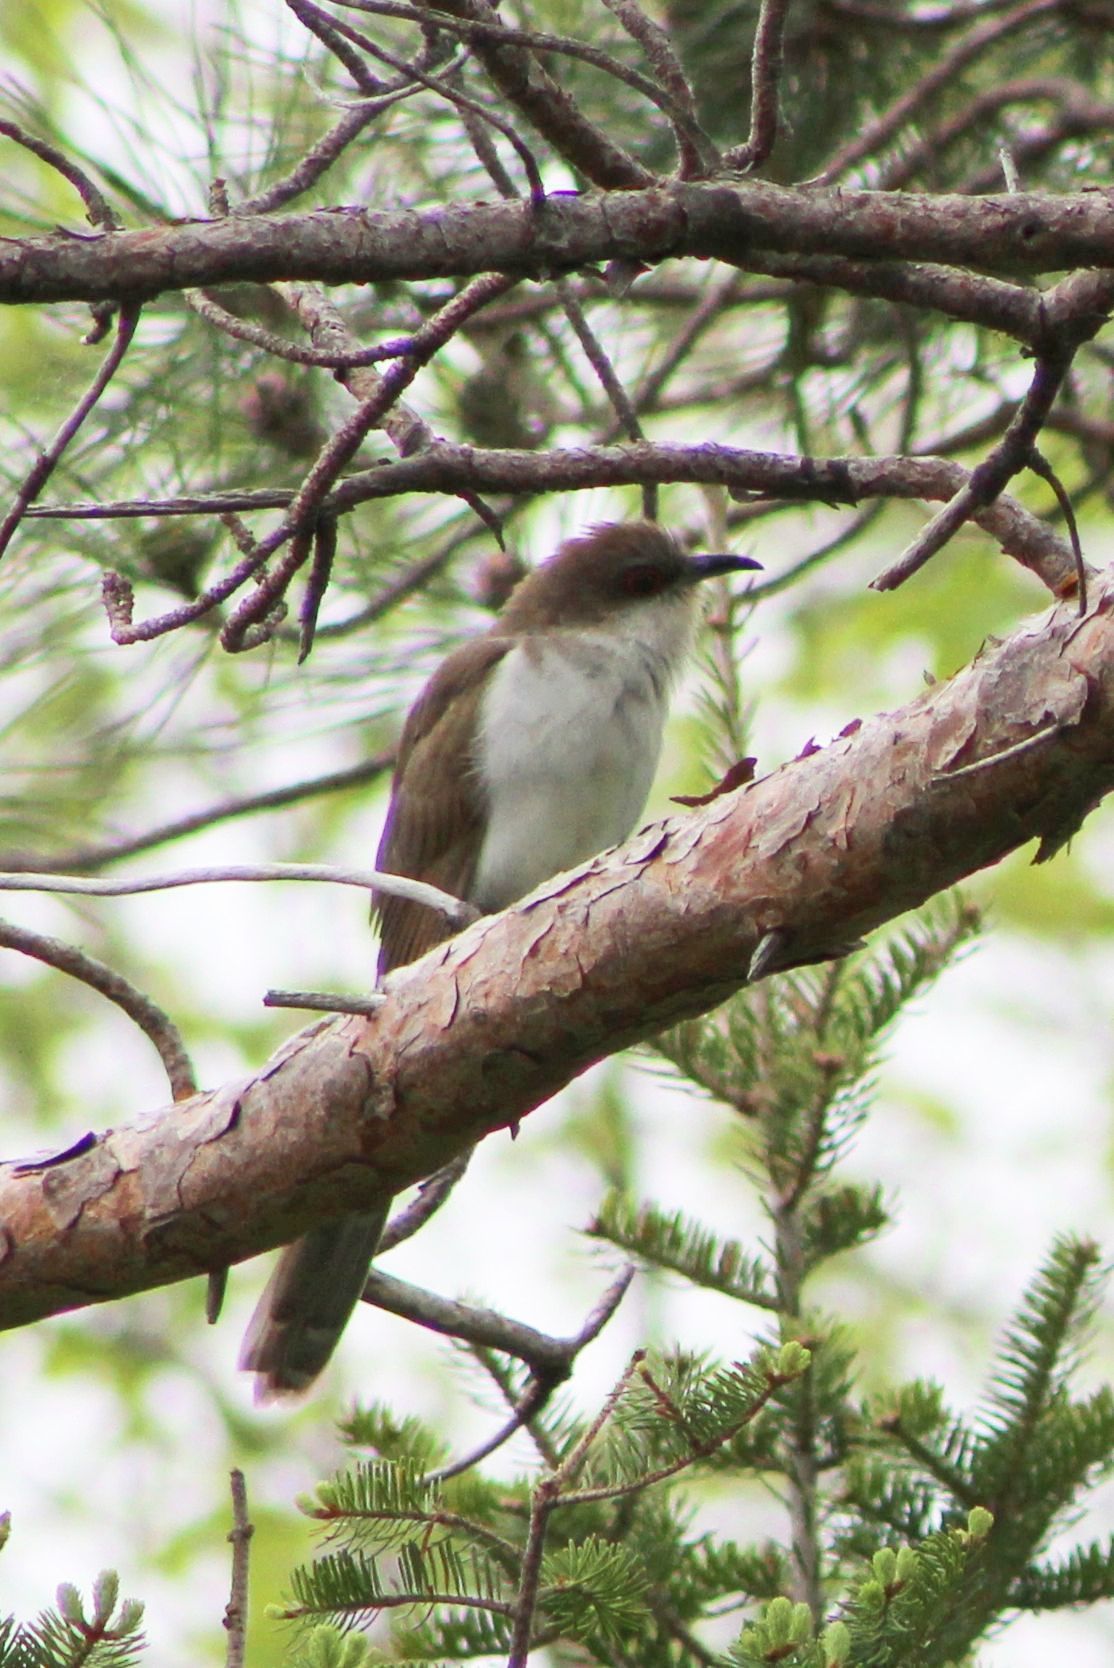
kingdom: Animalia
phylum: Chordata
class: Aves
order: Cuculiformes
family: Cuculidae
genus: Coccyzus
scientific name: Coccyzus erythropthalmus
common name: Black-billed cuckoo
